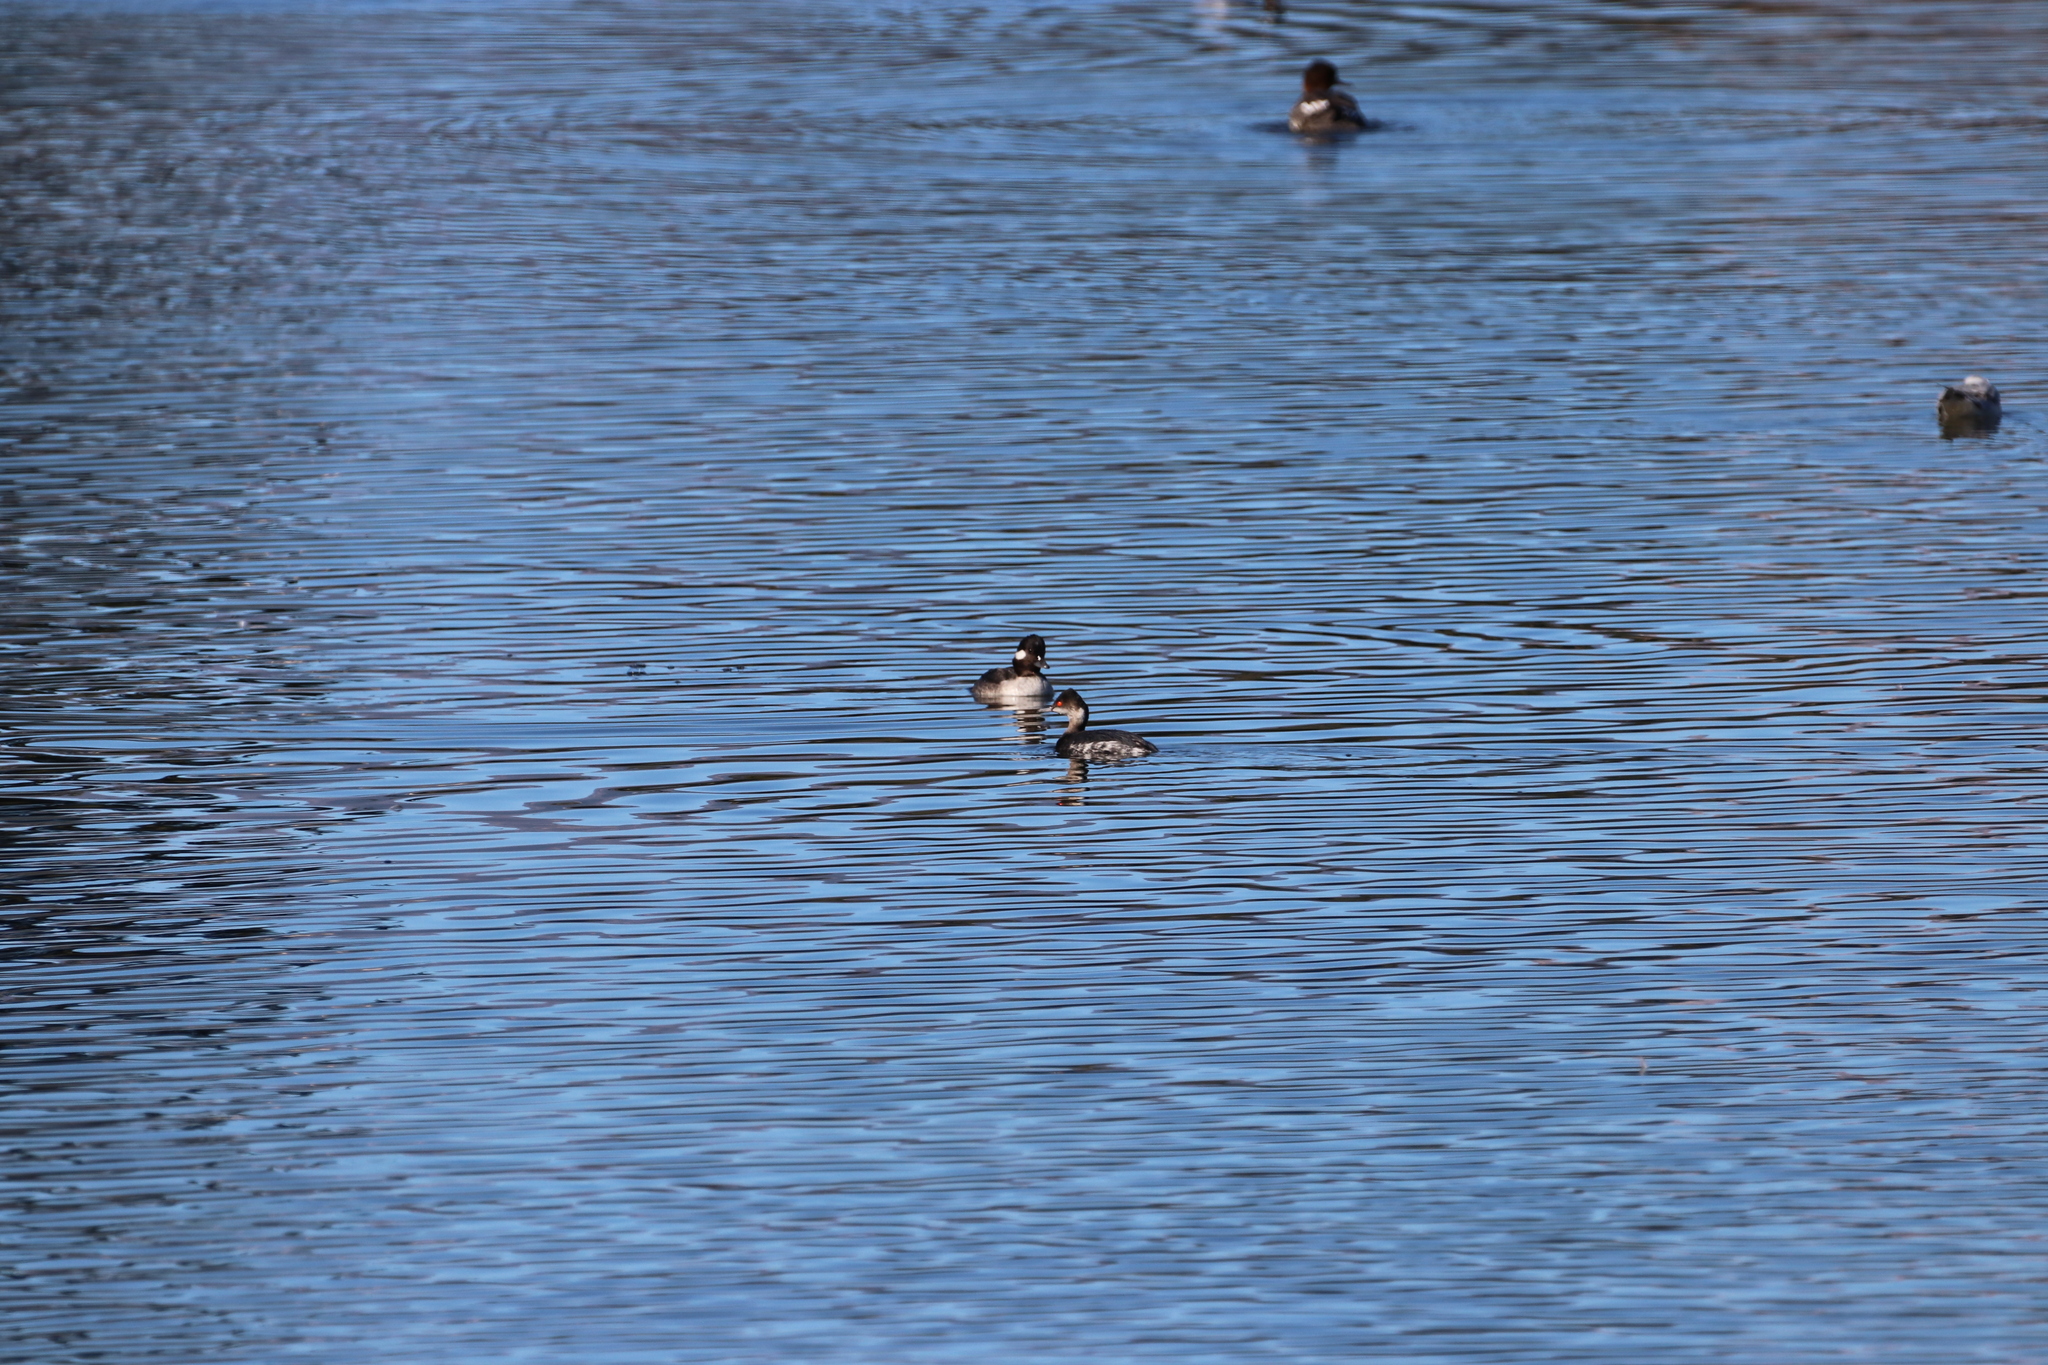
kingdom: Animalia
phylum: Chordata
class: Aves
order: Anseriformes
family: Anatidae
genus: Bucephala
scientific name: Bucephala albeola
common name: Bufflehead
